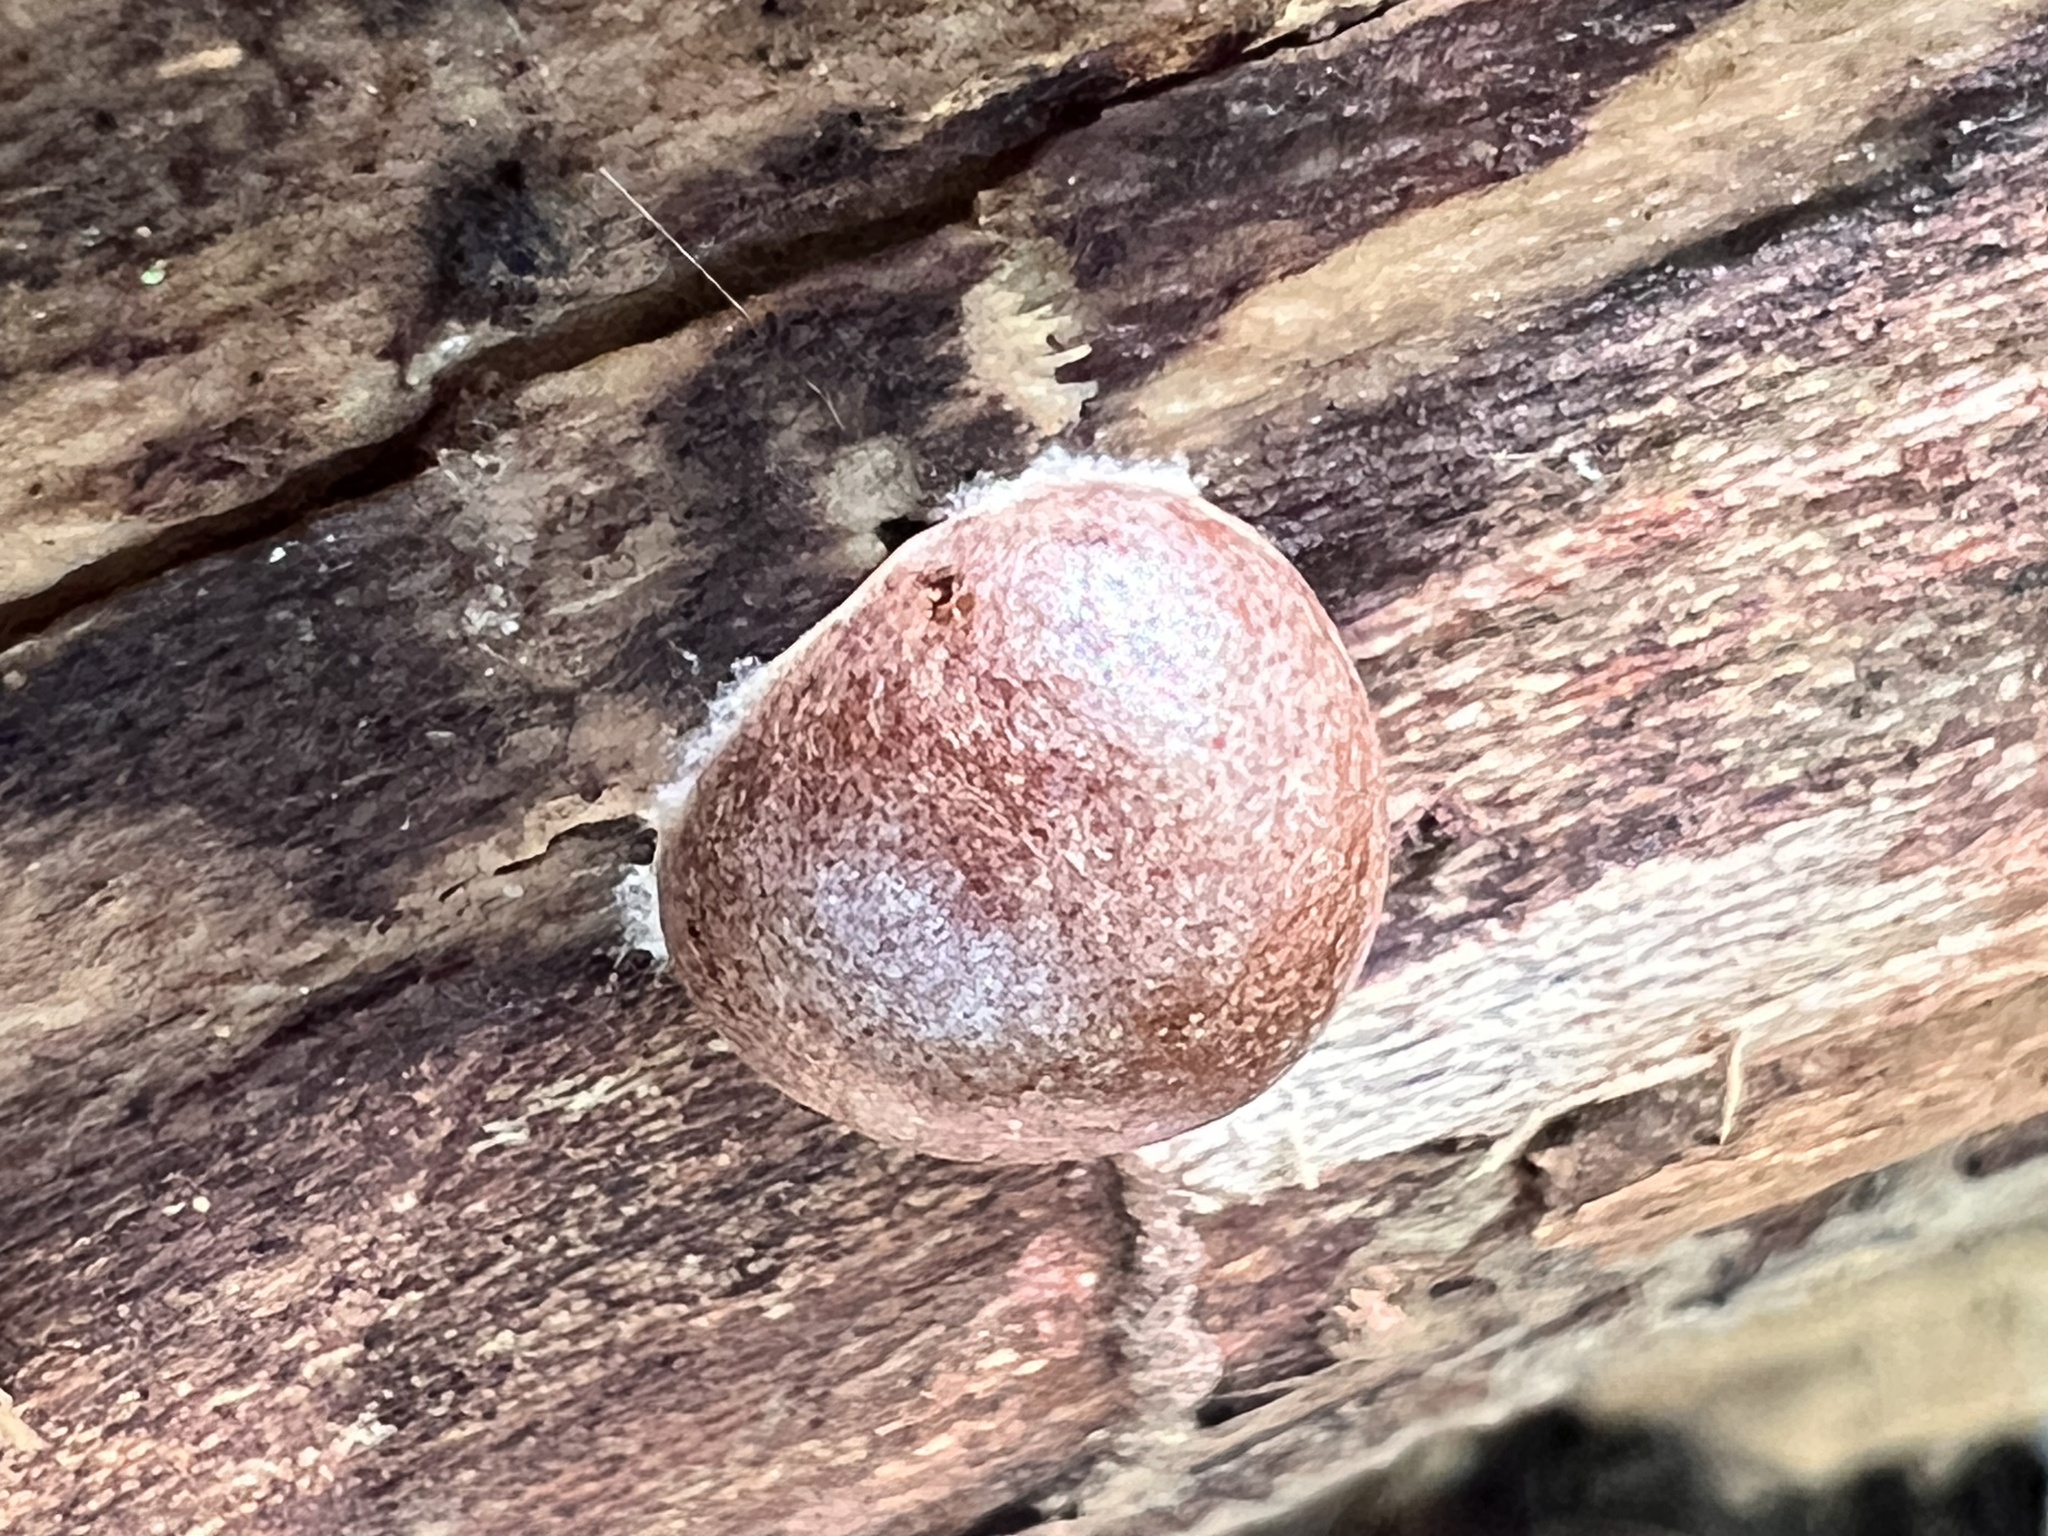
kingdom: Protozoa
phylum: Mycetozoa
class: Myxomycetes
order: Cribrariales
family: Tubiferaceae
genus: Reticularia
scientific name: Reticularia splendens
